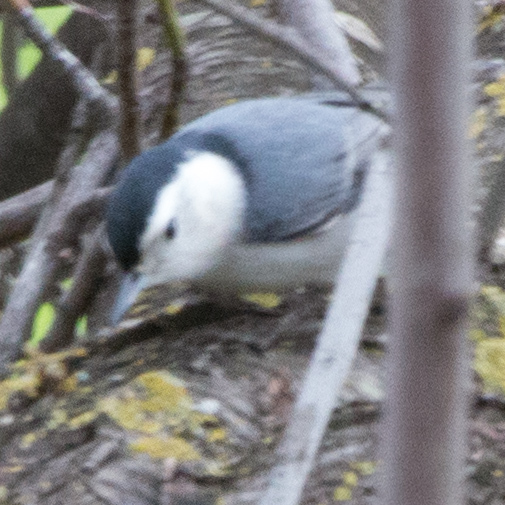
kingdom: Animalia
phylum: Chordata
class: Aves
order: Passeriformes
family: Sittidae
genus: Sitta
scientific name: Sitta carolinensis
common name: White-breasted nuthatch
